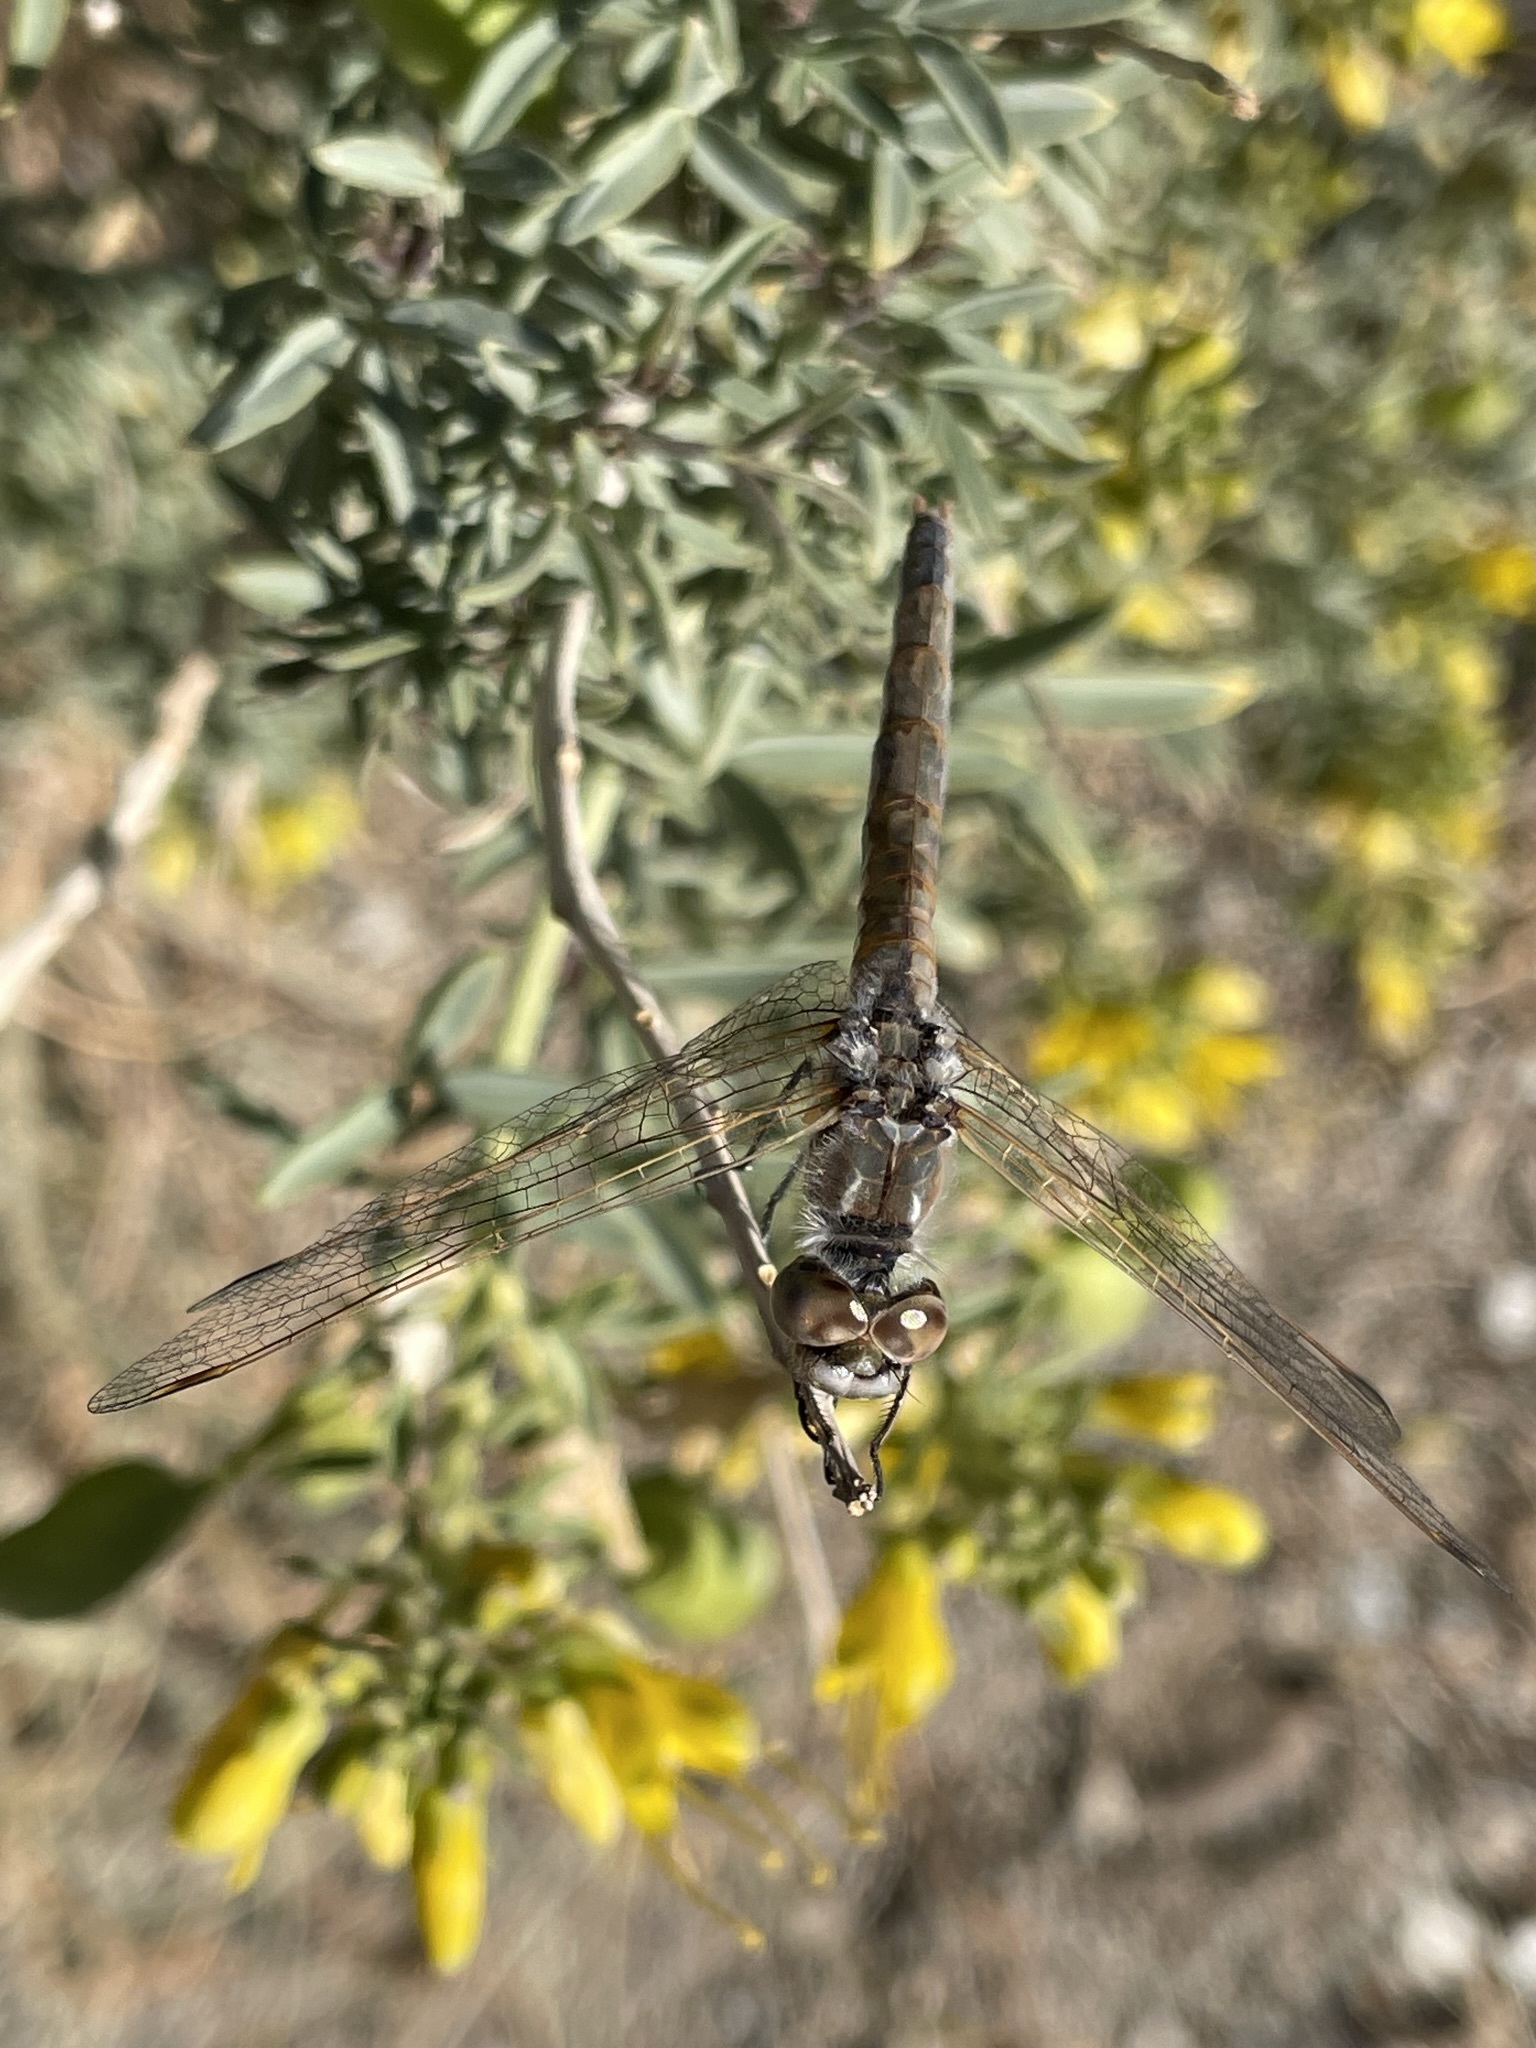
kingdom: Animalia
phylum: Arthropoda
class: Insecta
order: Odonata
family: Libellulidae
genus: Sympetrum
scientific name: Sympetrum corruptum
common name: Variegated meadowhawk
